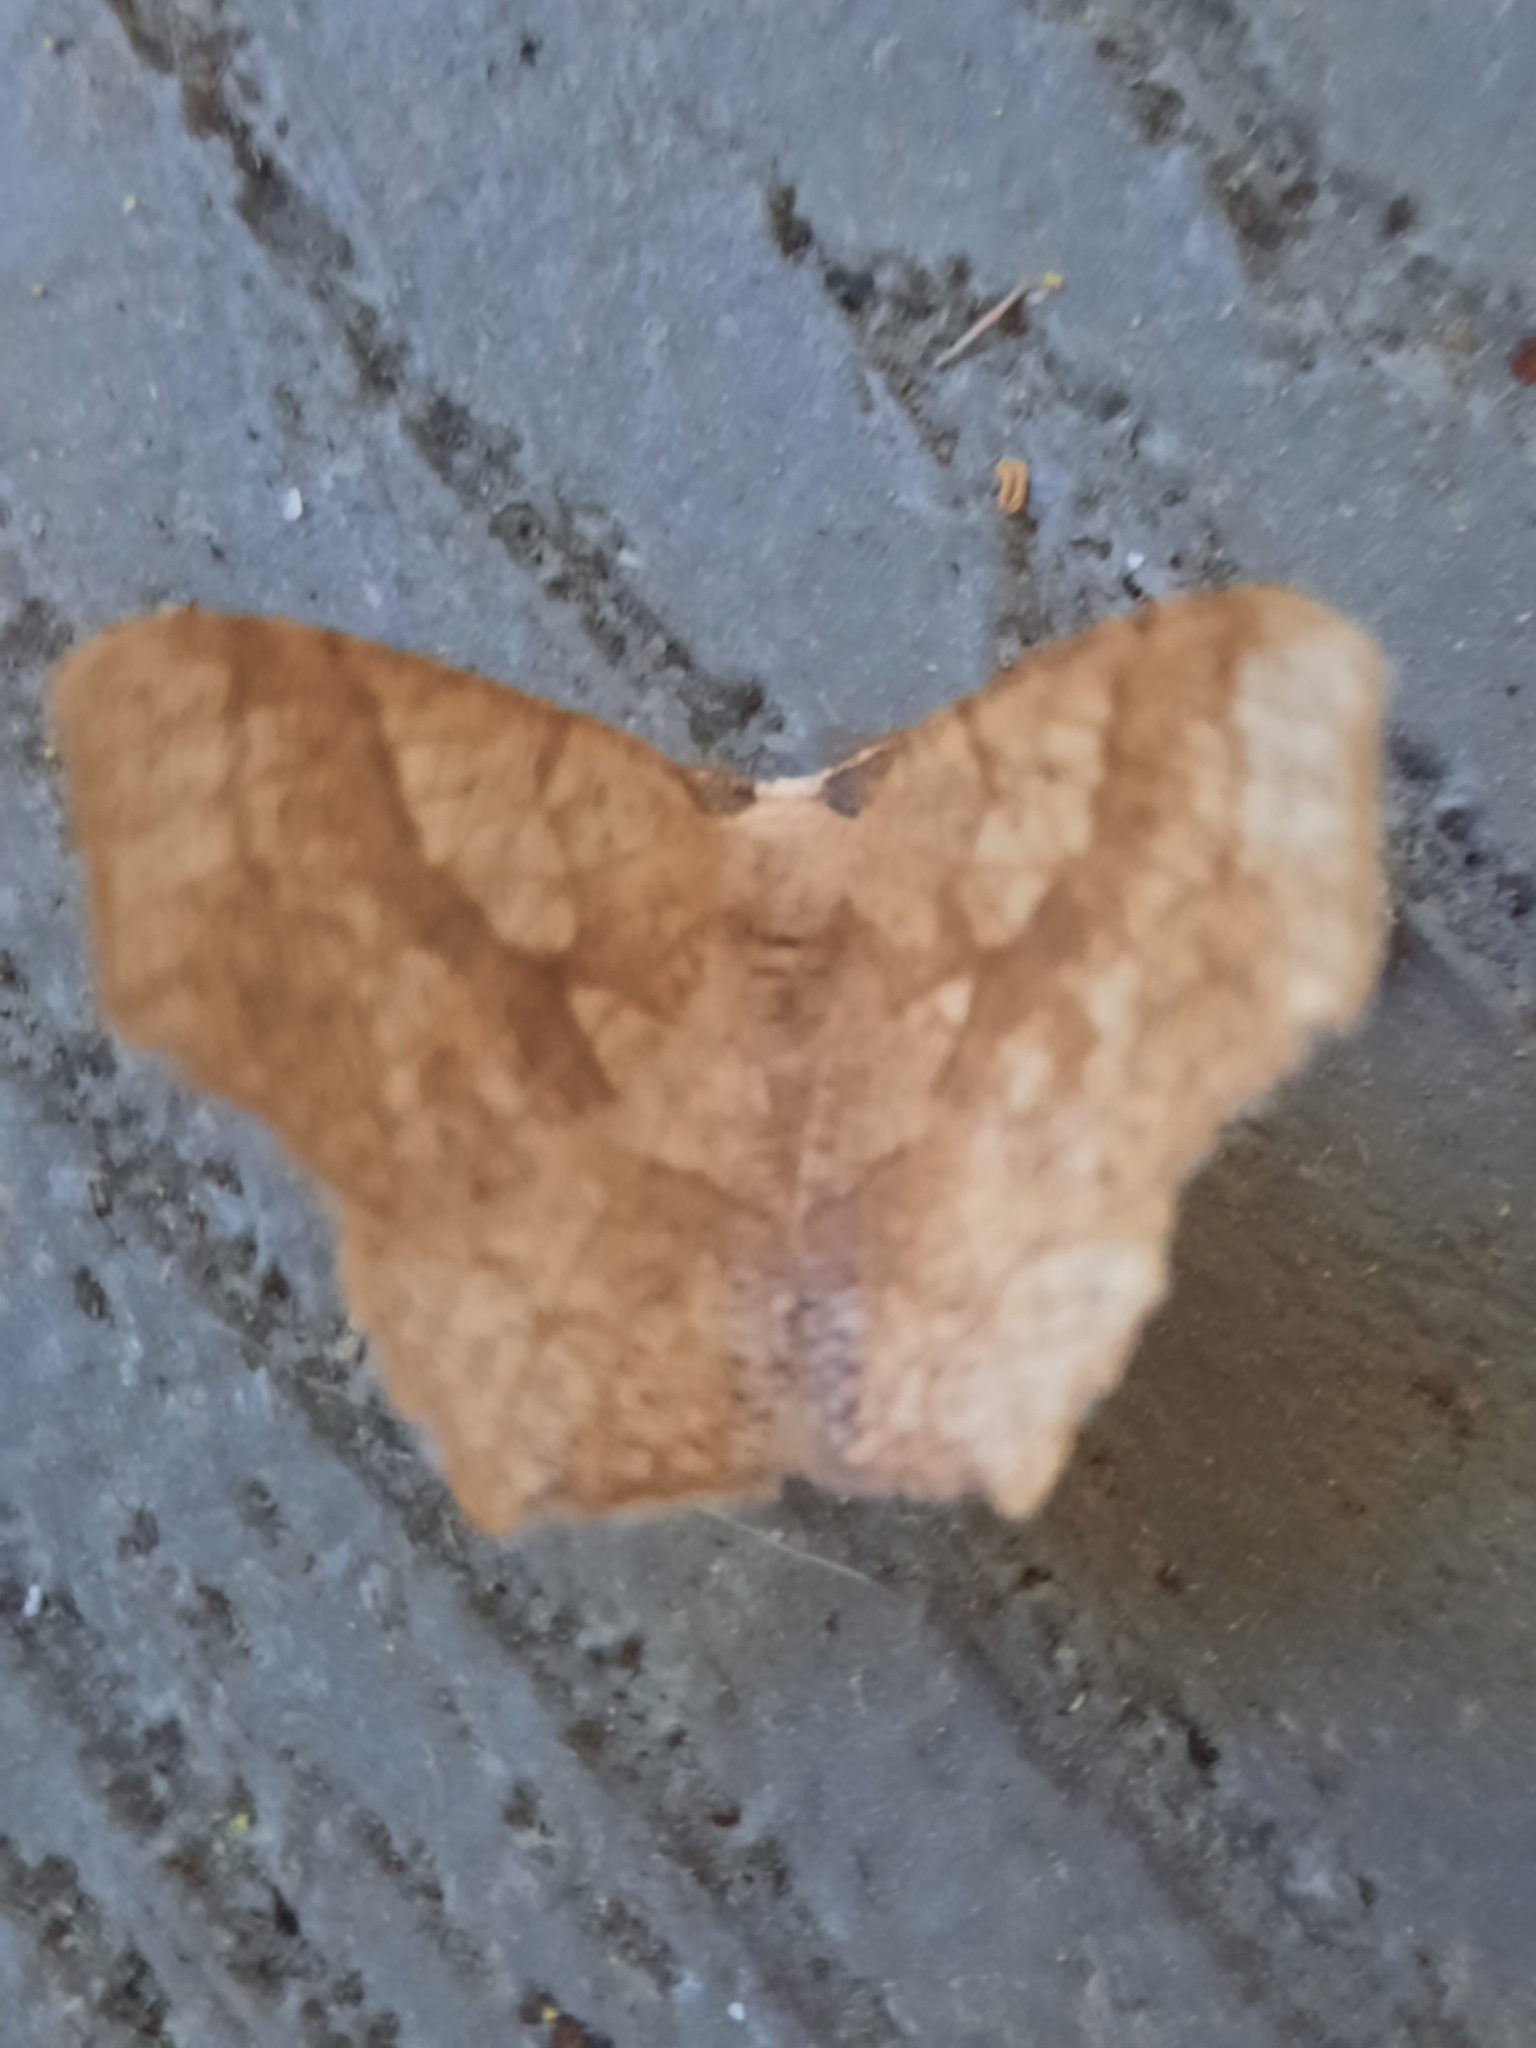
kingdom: Animalia
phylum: Arthropoda
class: Insecta
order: Lepidoptera
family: Geometridae
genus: Besma
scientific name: Besma quercivoraria
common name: Oak besma
